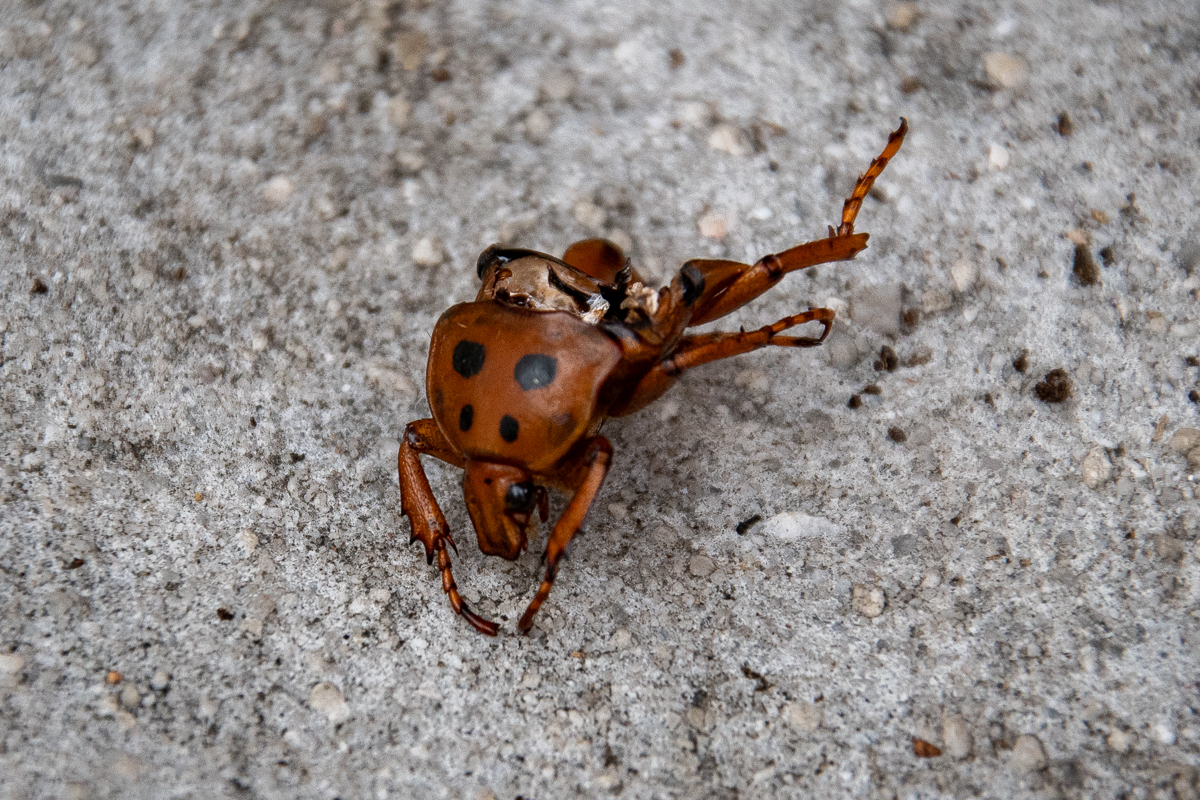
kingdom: Animalia
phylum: Arthropoda
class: Insecta
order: Coleoptera
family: Scarabaeidae
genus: Anisorrhina
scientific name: Anisorrhina flavomaculata
